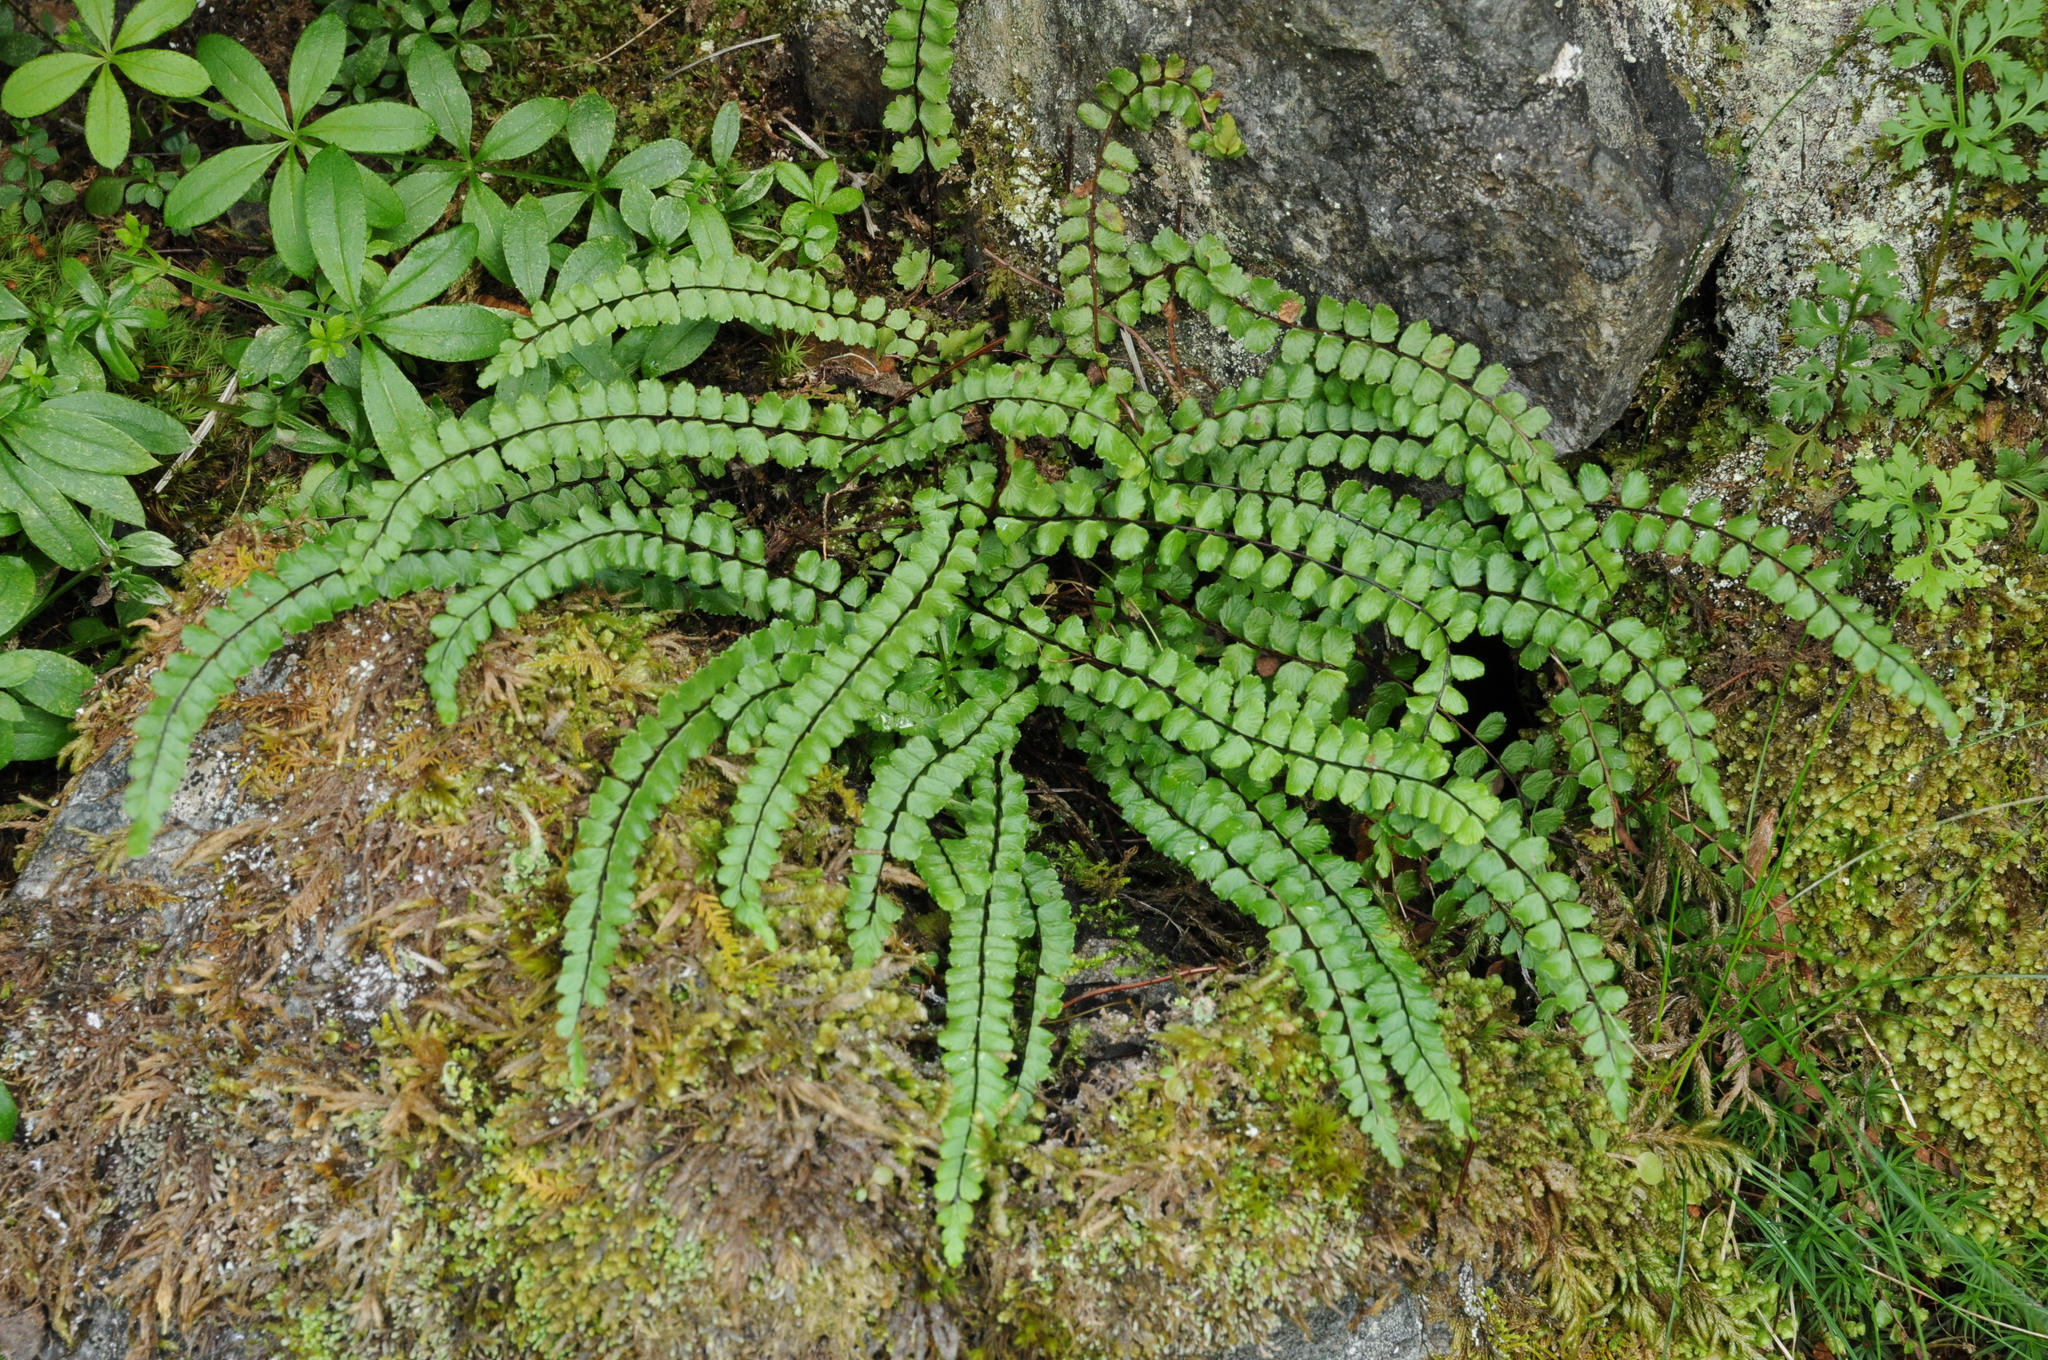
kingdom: Plantae
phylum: Tracheophyta
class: Polypodiopsida
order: Polypodiales
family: Aspleniaceae
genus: Asplenium
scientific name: Asplenium trichomanes
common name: Maidenhair spleenwort
